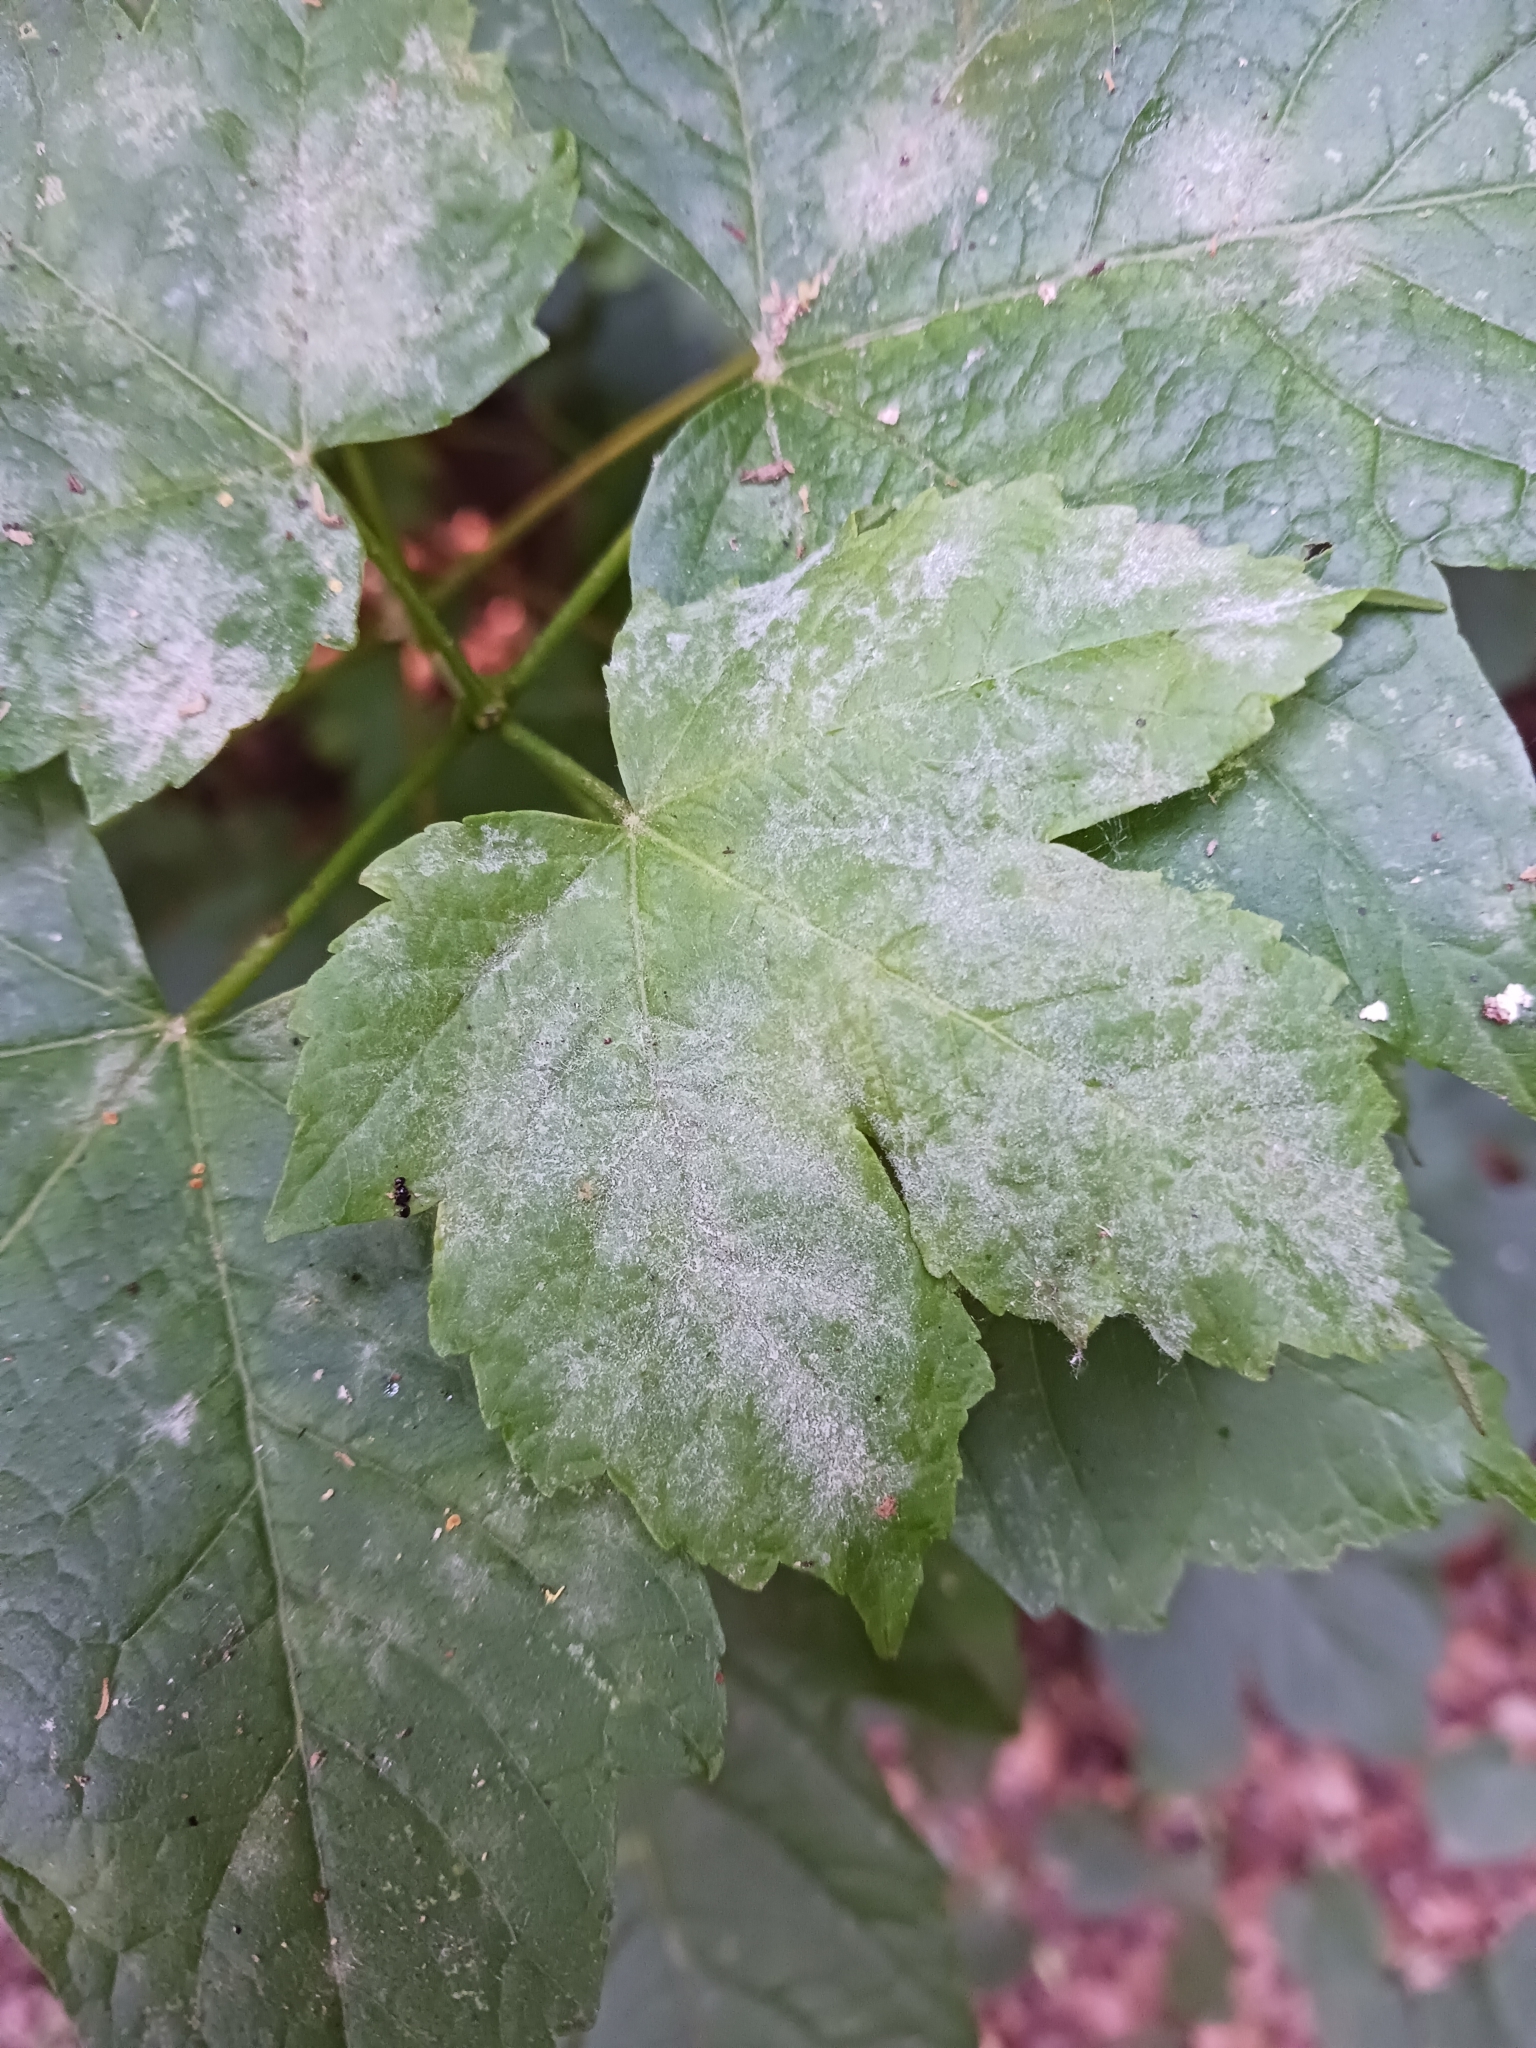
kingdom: Fungi
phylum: Ascomycota
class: Leotiomycetes
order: Helotiales
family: Erysiphaceae
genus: Sawadaea
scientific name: Sawadaea bicornis
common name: Maple mildew
